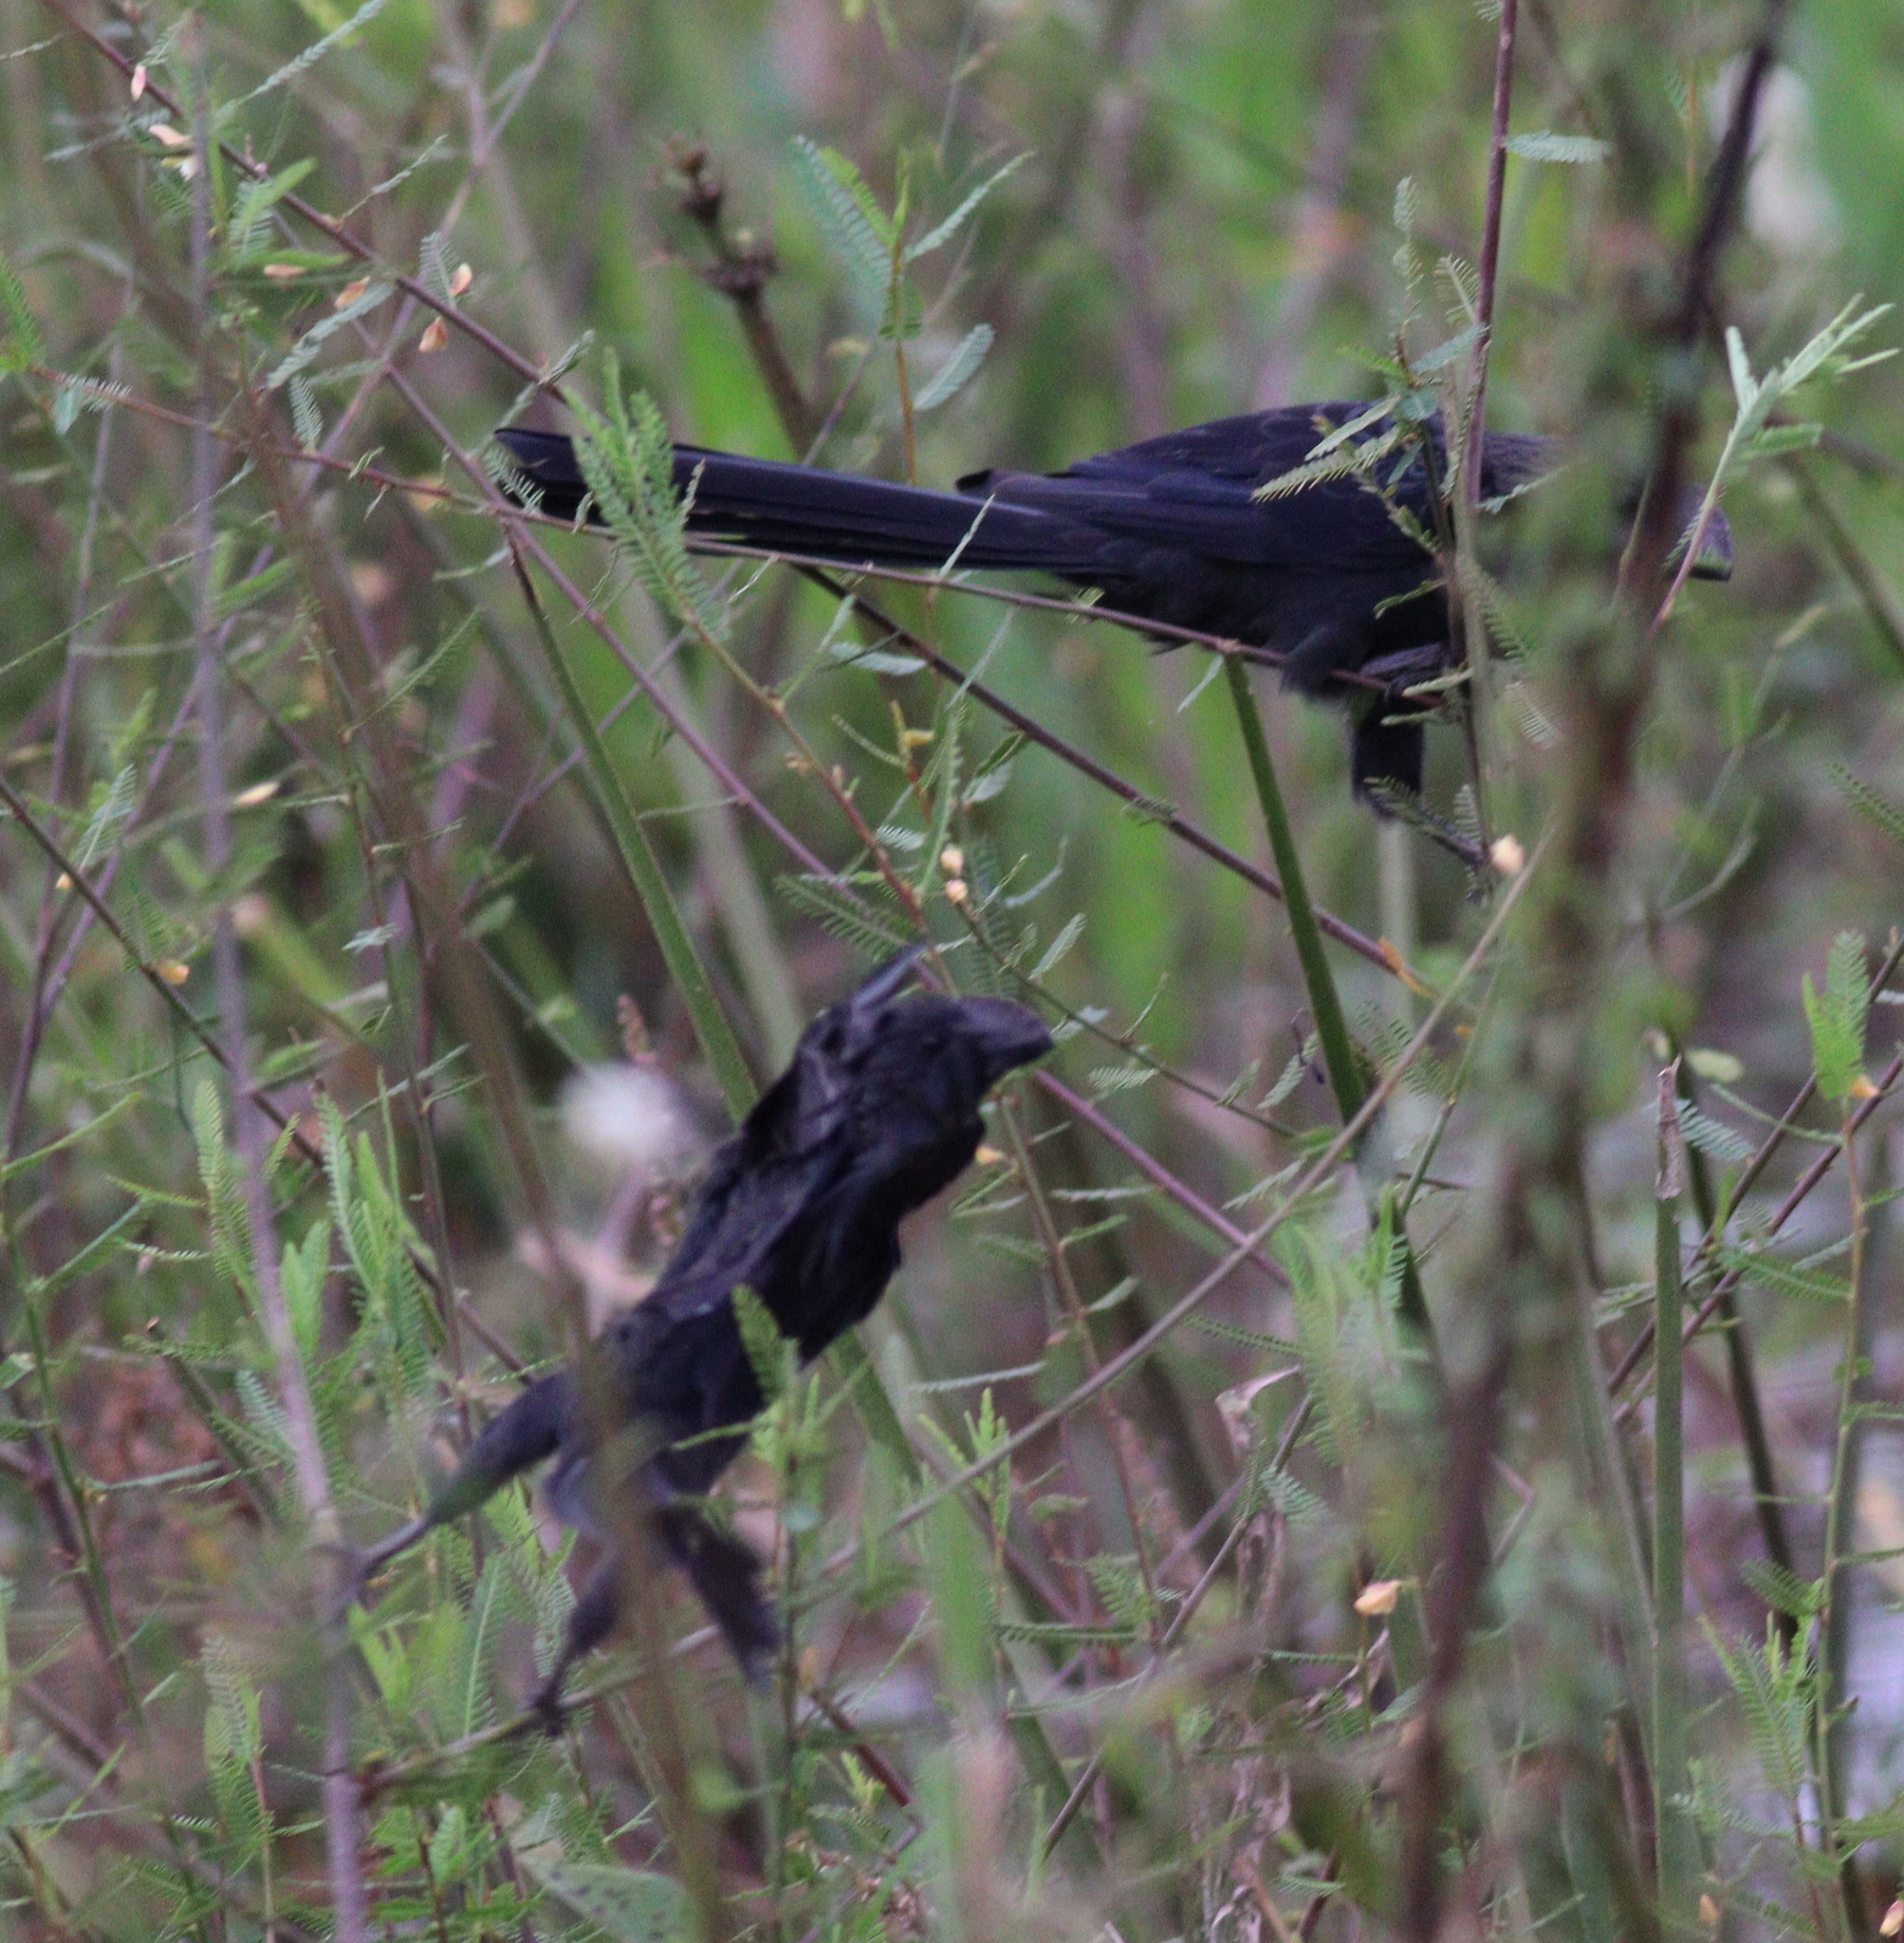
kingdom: Animalia
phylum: Chordata
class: Aves
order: Cuculiformes
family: Cuculidae
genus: Crotophaga
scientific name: Crotophaga ani
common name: Smooth-billed ani
